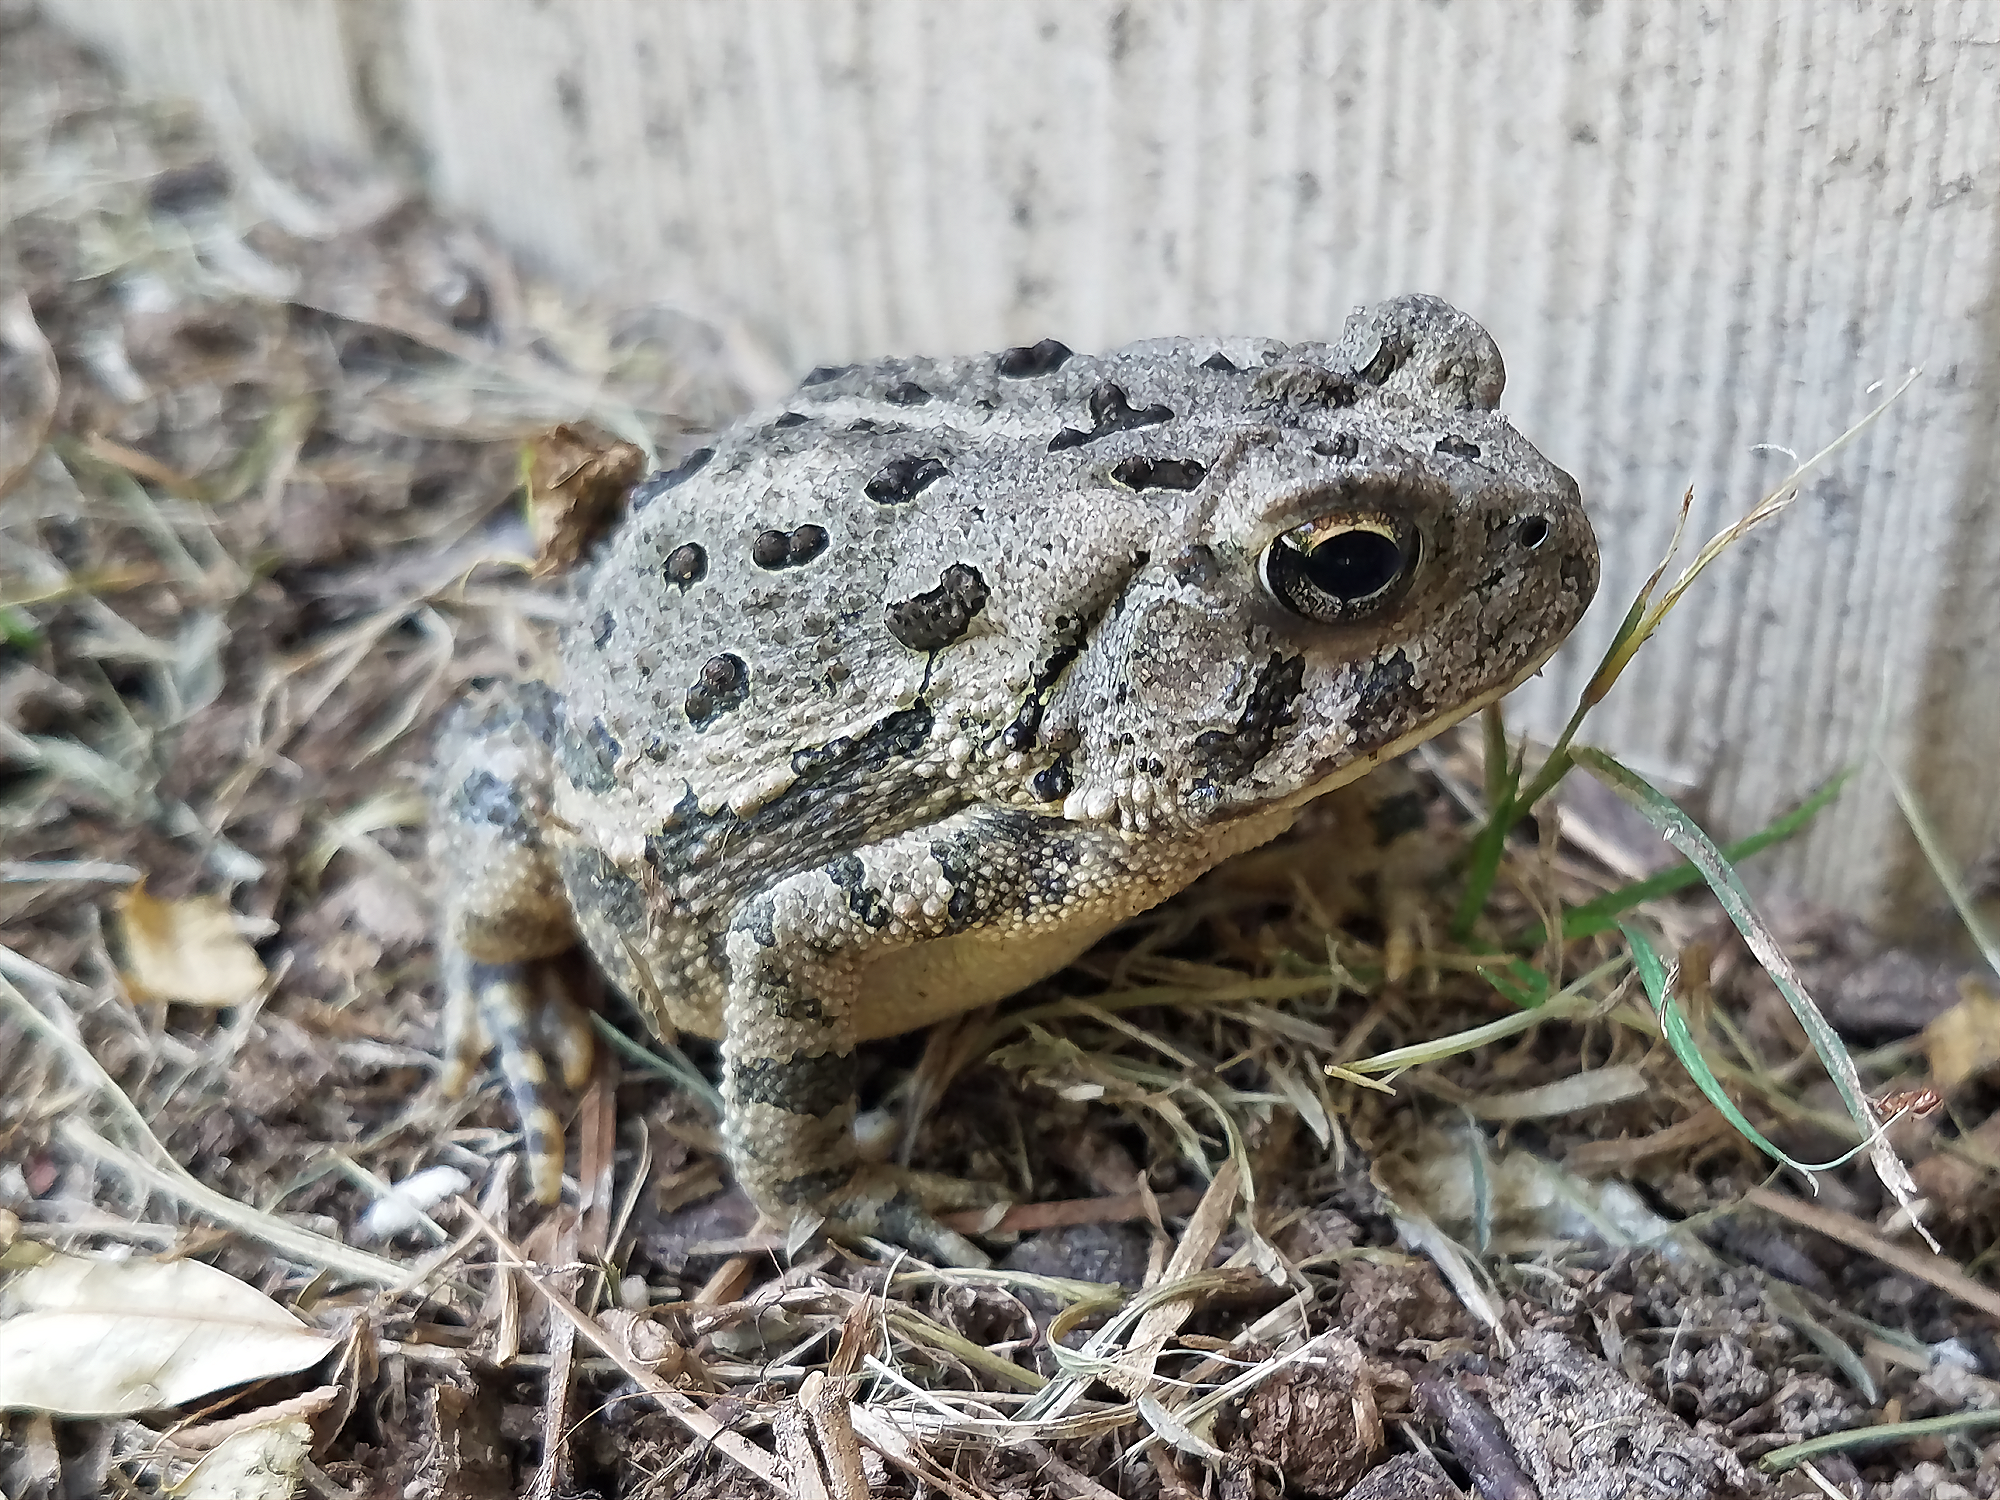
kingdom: Animalia
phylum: Chordata
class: Amphibia
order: Anura
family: Bufonidae
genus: Anaxyrus
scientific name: Anaxyrus fowleri
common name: Fowler's toad
